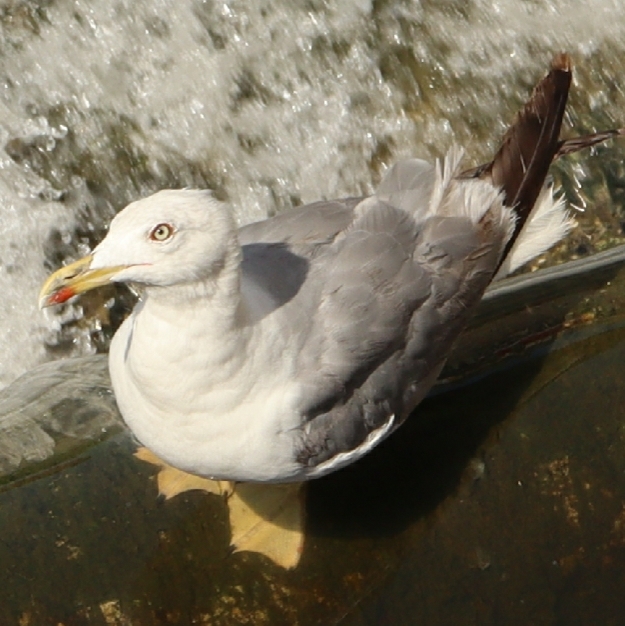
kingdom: Animalia
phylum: Chordata
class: Aves
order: Charadriiformes
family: Laridae
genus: Larus
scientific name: Larus michahellis
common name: Yellow-legged gull
